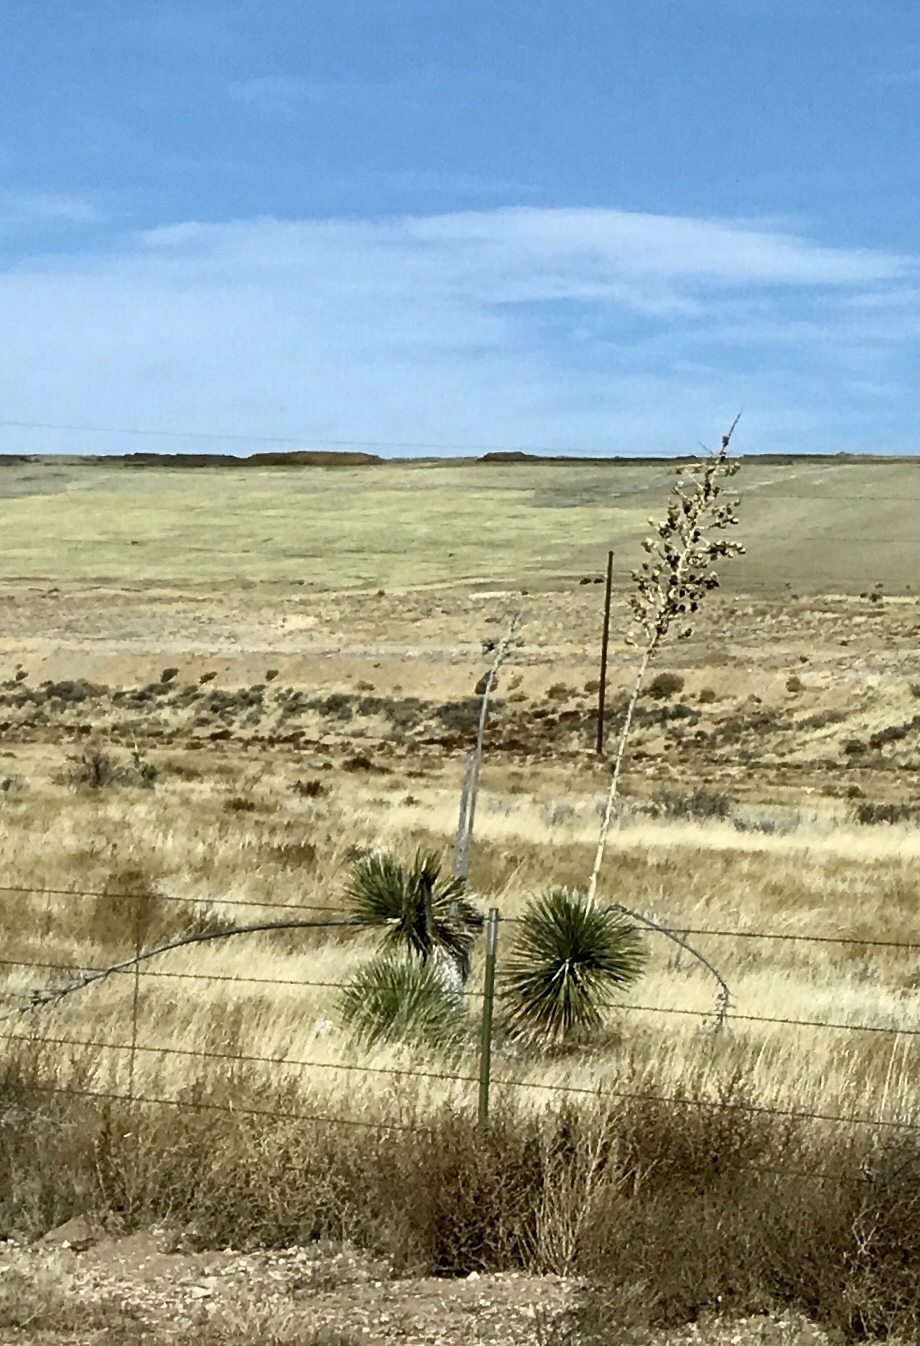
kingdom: Plantae
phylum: Tracheophyta
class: Liliopsida
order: Asparagales
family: Asparagaceae
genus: Yucca
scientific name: Yucca elata
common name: Palmella
